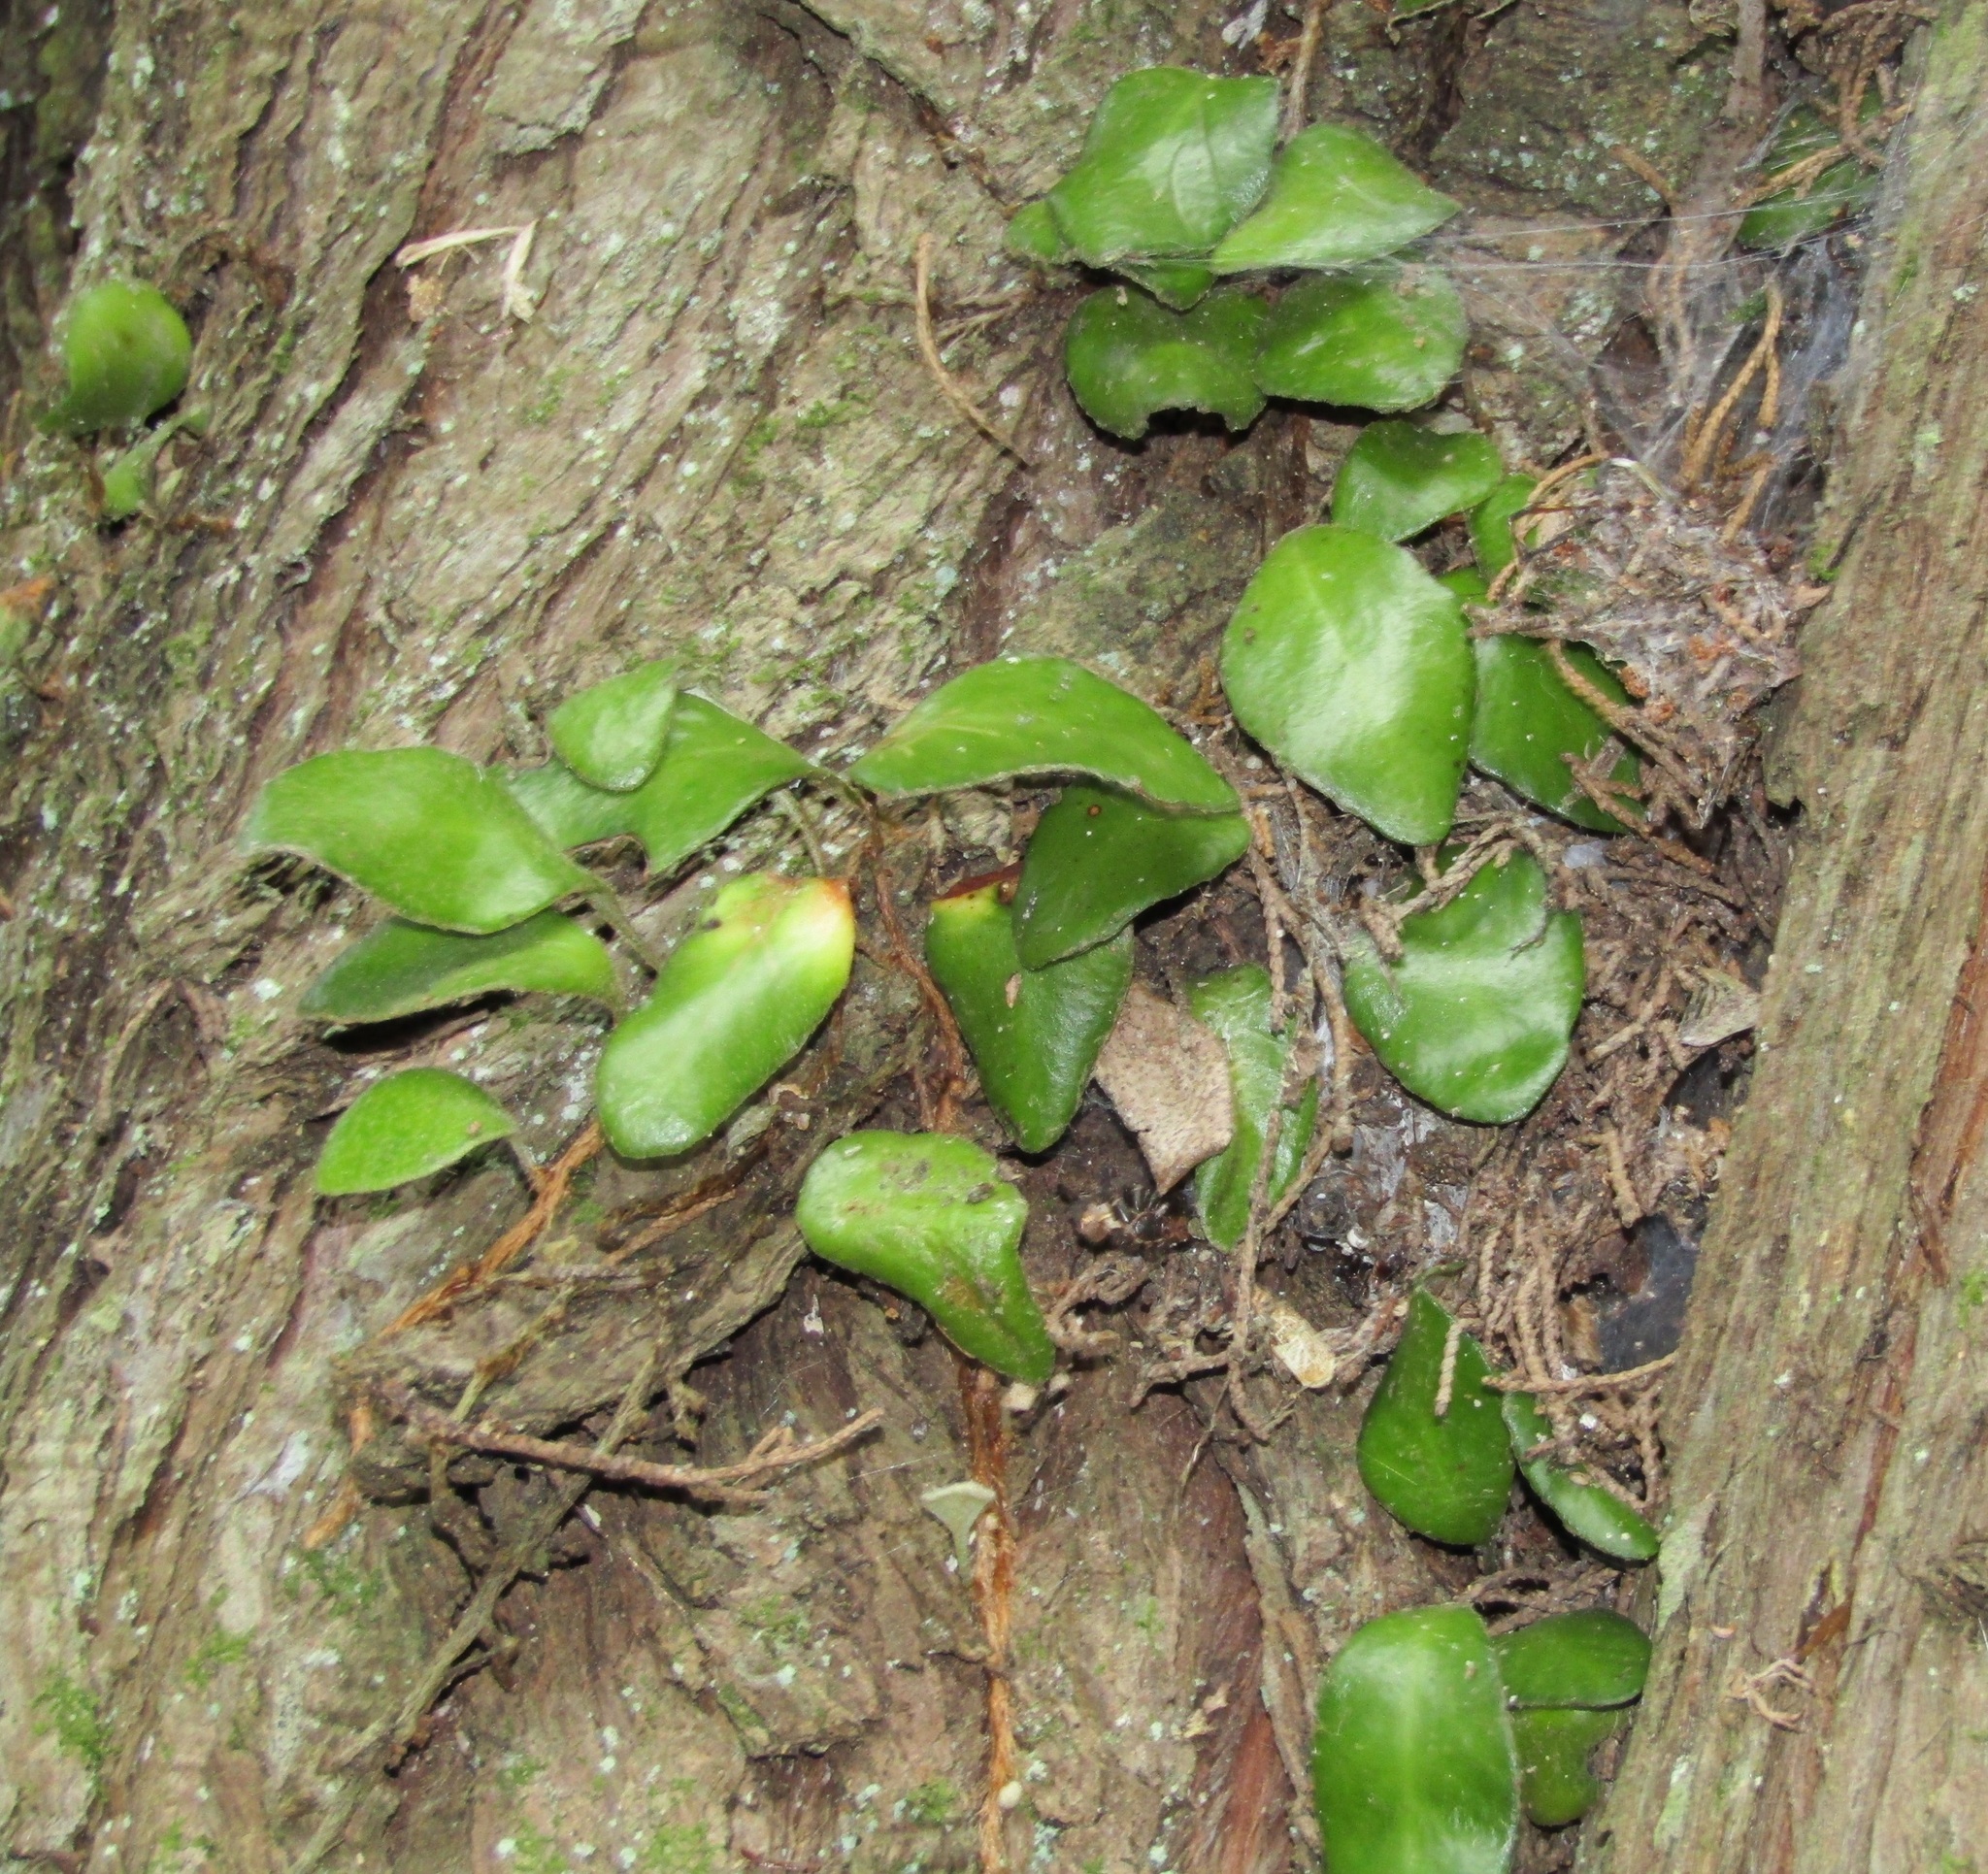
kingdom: Plantae
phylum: Tracheophyta
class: Polypodiopsida
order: Polypodiales
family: Polypodiaceae
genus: Pyrrosia
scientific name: Pyrrosia eleagnifolia
